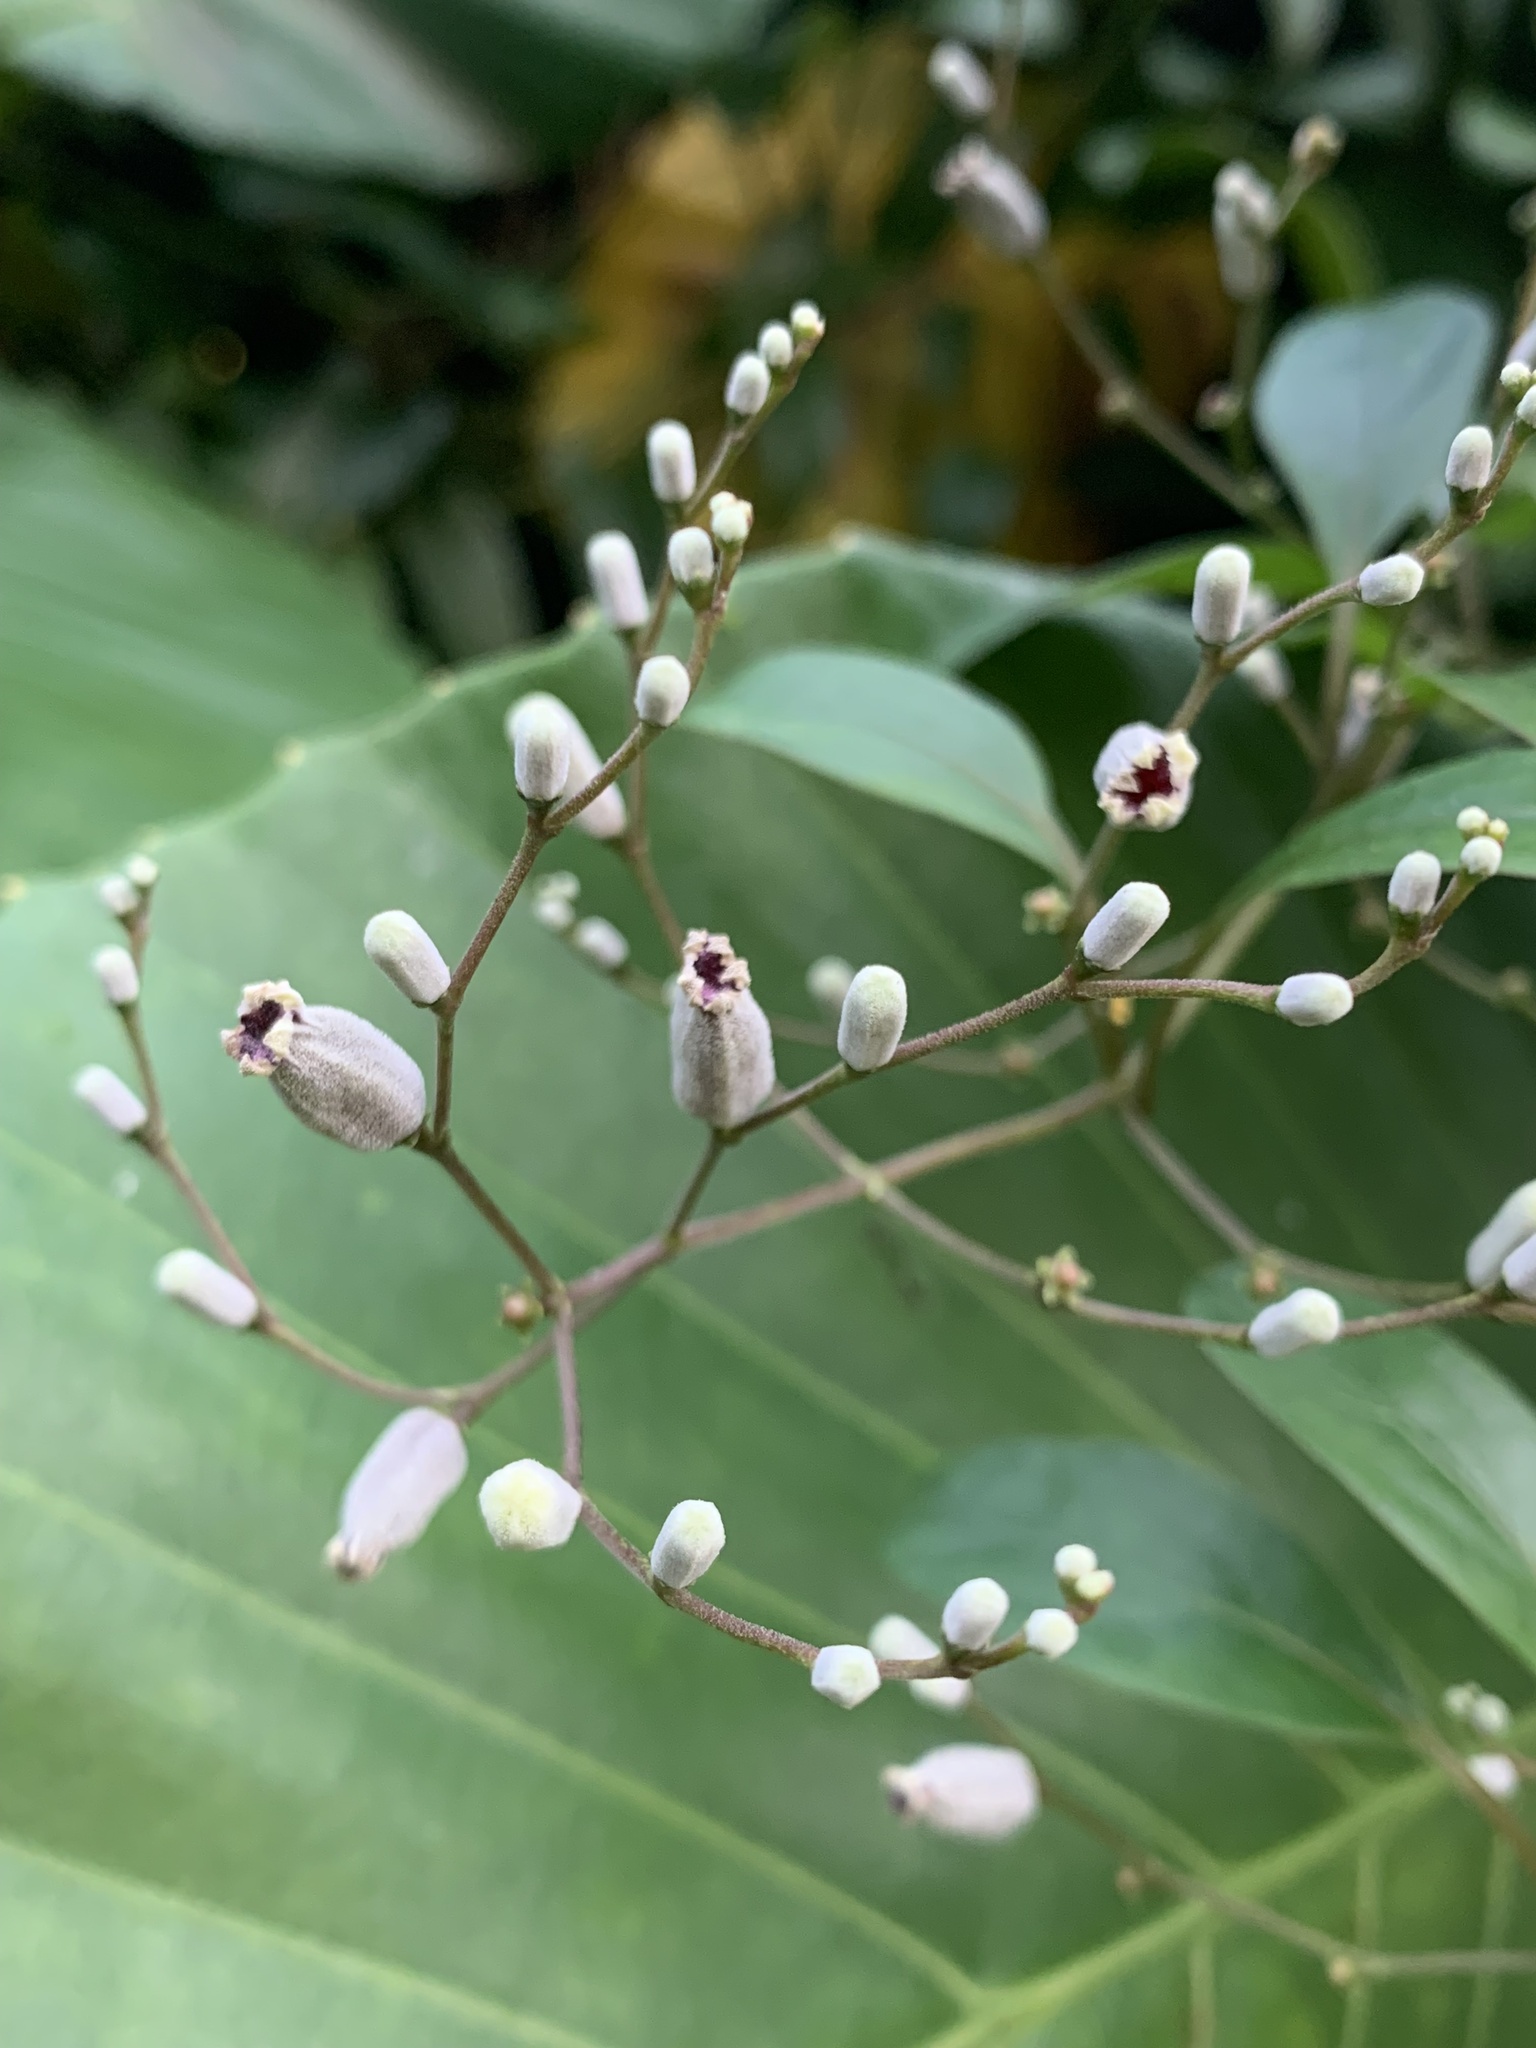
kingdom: Plantae
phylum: Tracheophyta
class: Magnoliopsida
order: Gentianales
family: Rubiaceae
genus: Paederia
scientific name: Paederia foetida
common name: Stinkvine
